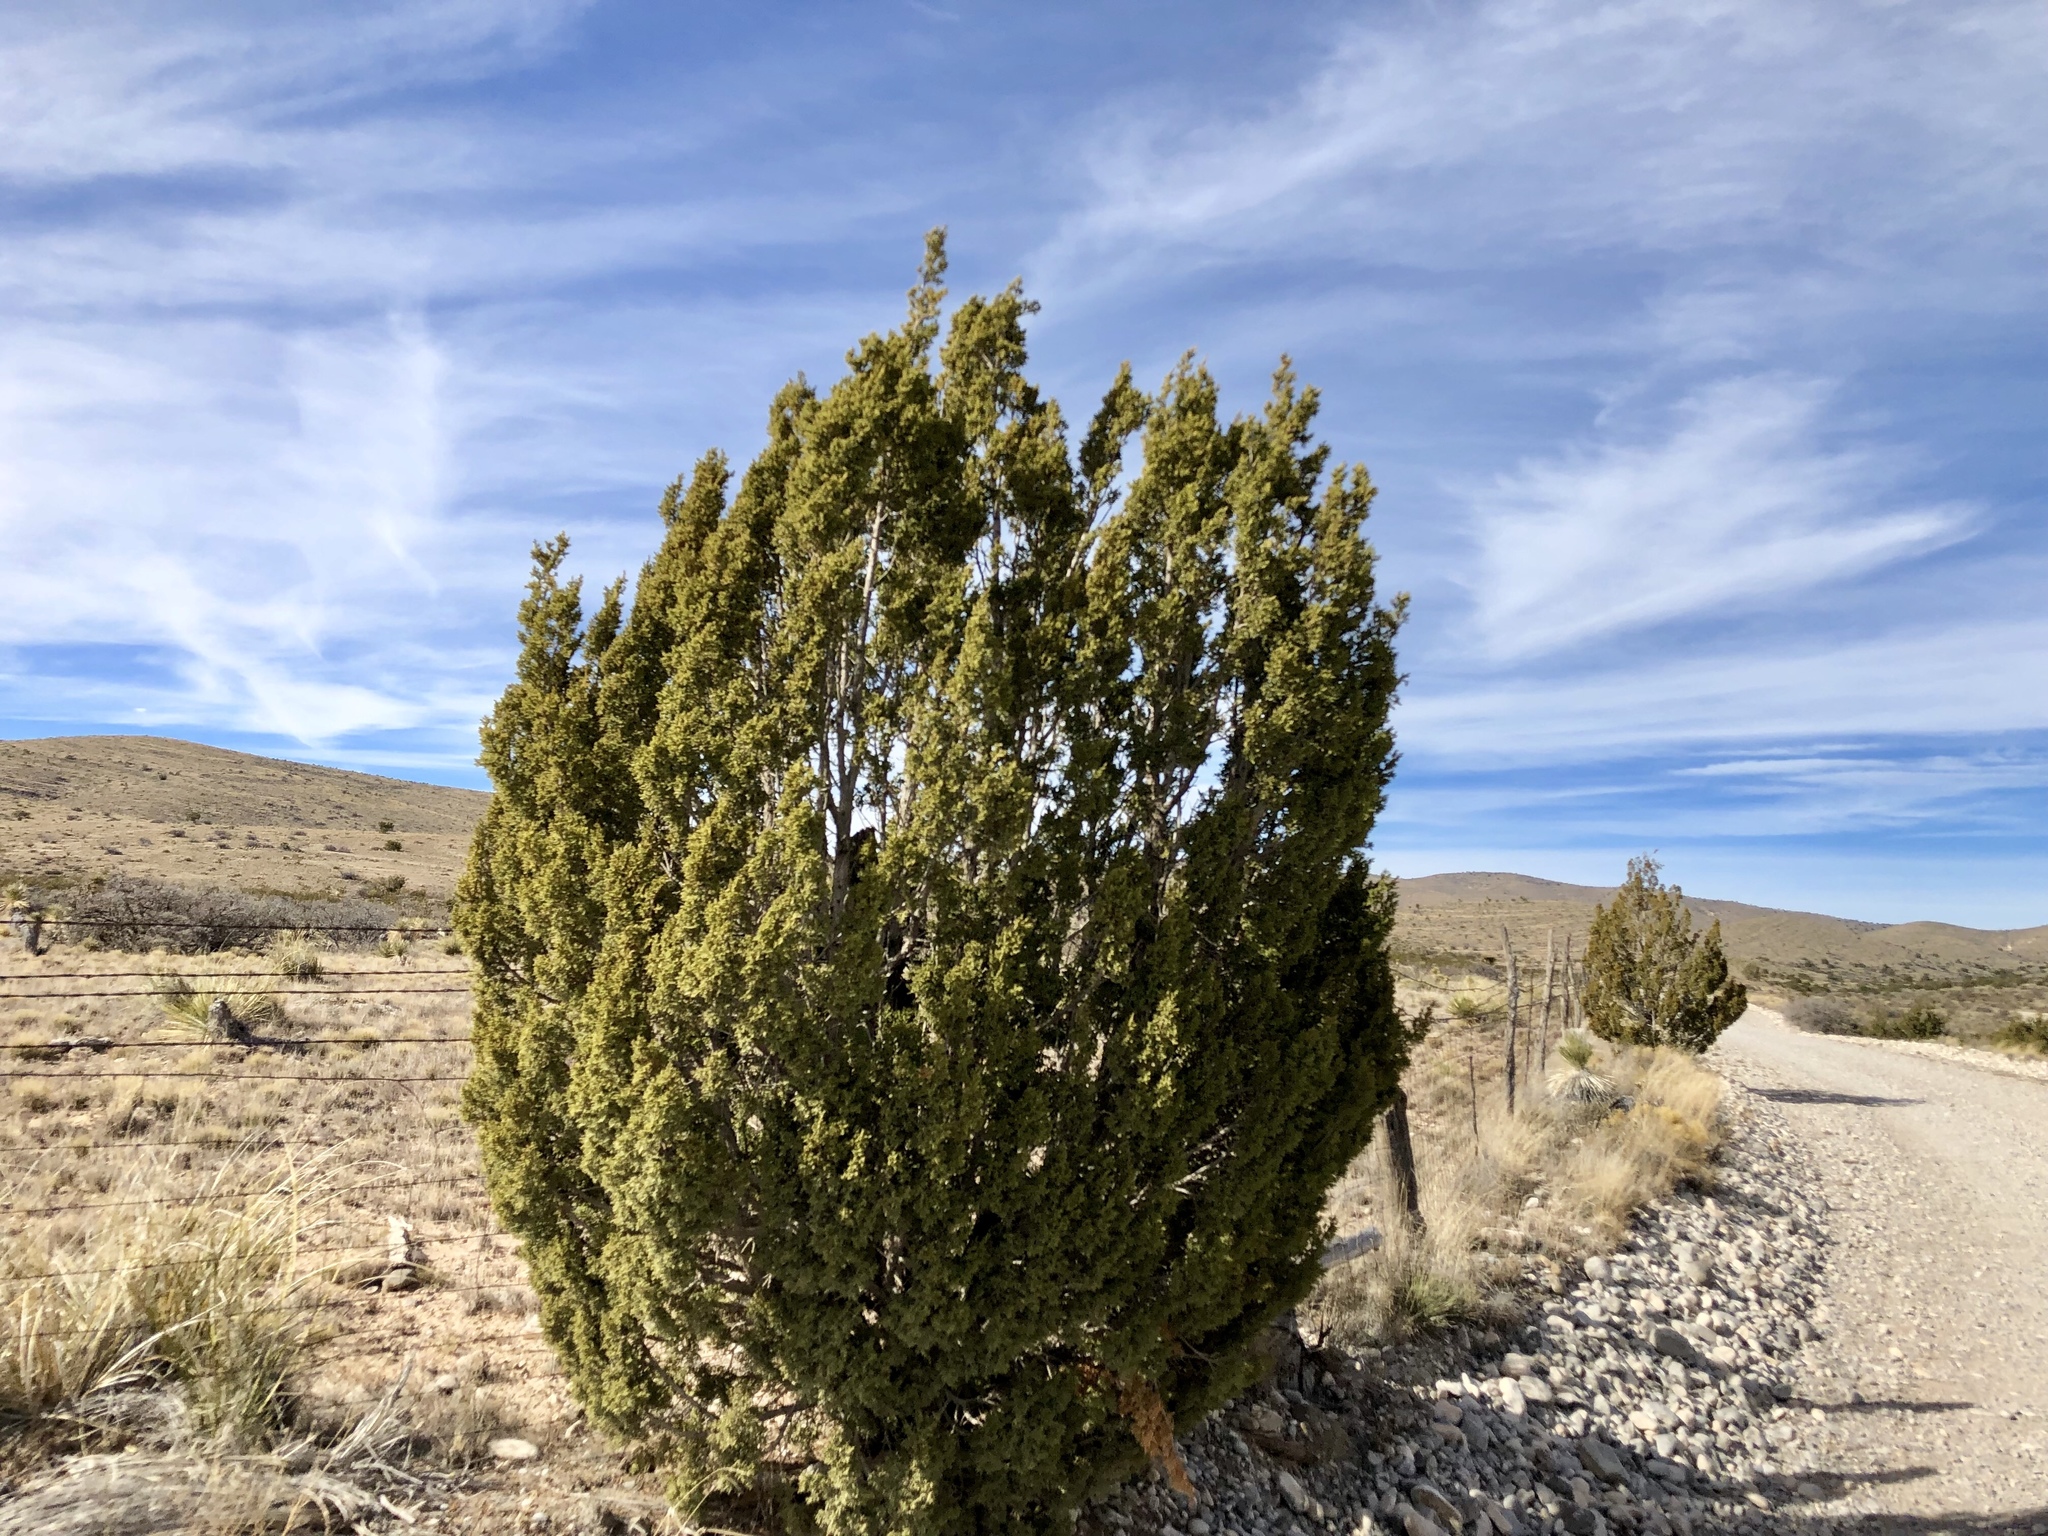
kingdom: Plantae
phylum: Tracheophyta
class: Pinopsida
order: Pinales
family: Cupressaceae
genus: Juniperus
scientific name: Juniperus monosperma
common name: One-seed juniper
